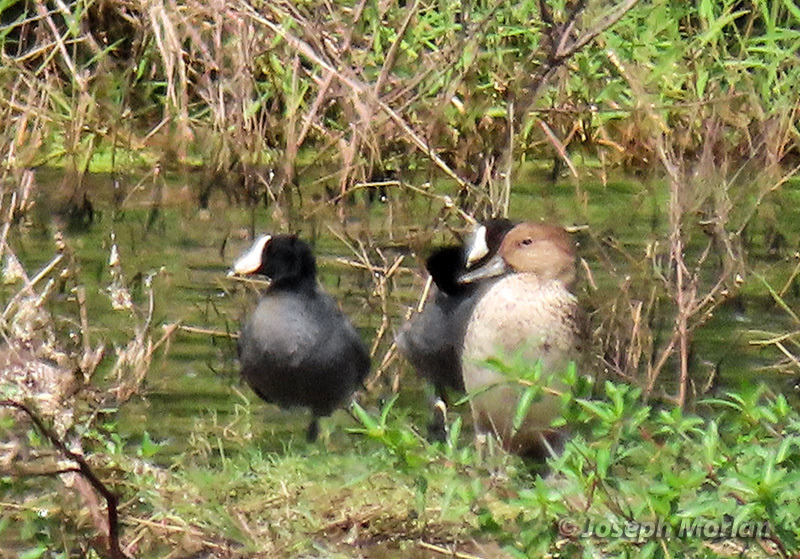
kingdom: Animalia
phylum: Chordata
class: Aves
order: Anseriformes
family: Anatidae
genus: Anas
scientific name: Anas acuta
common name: Northern pintail
